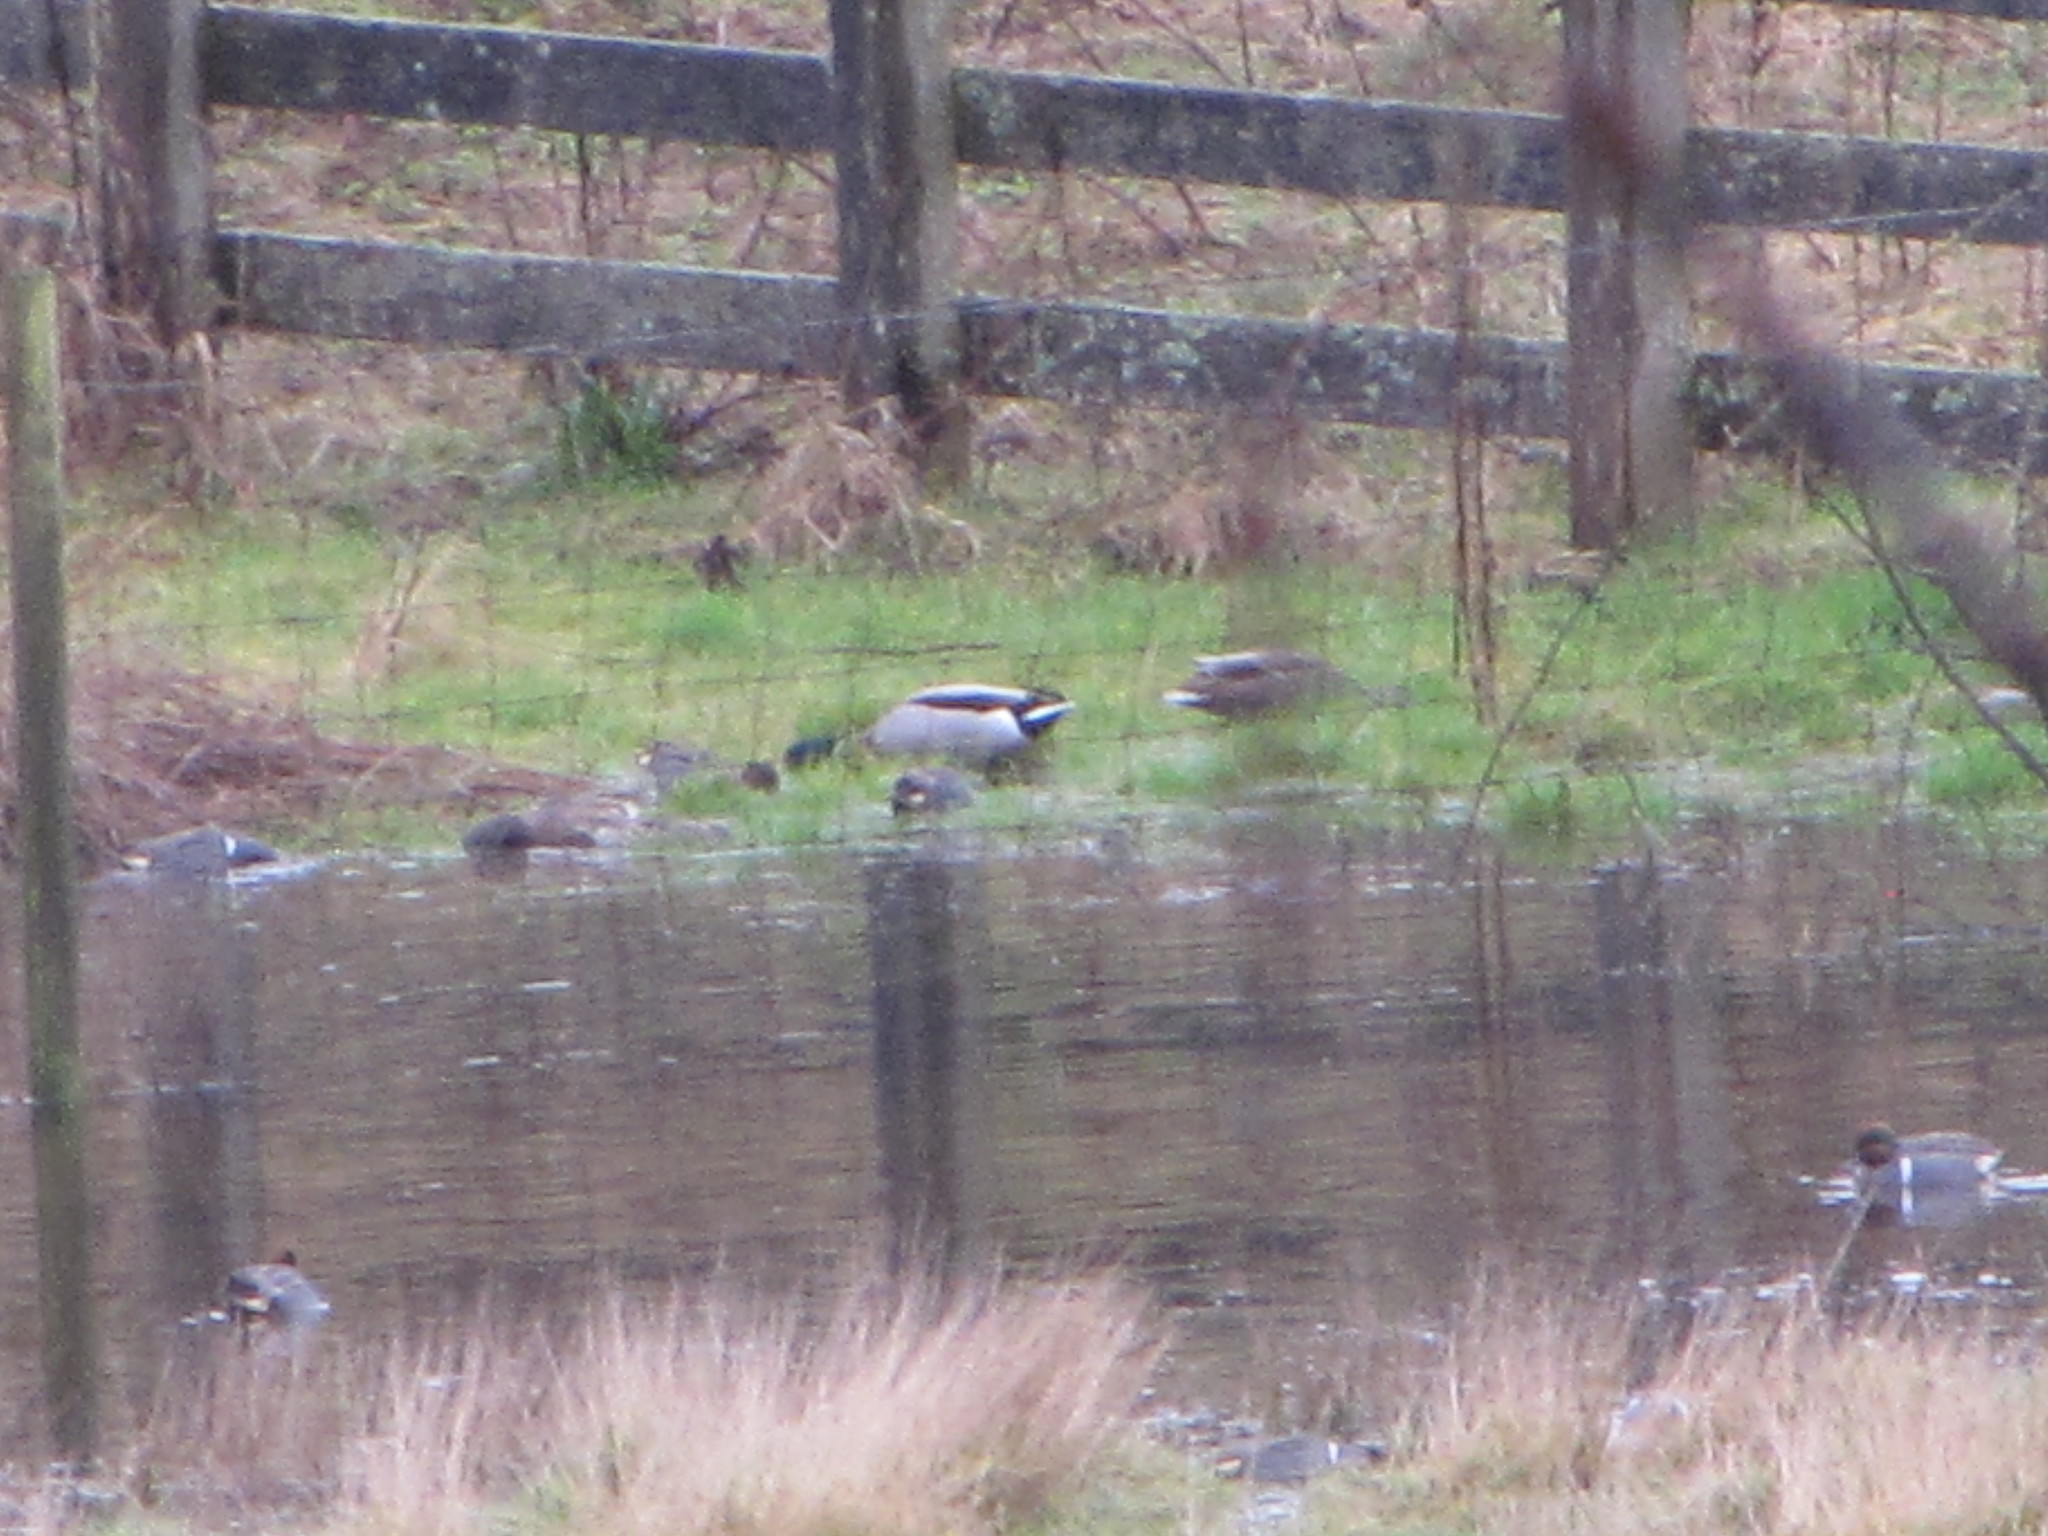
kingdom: Animalia
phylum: Chordata
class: Aves
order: Anseriformes
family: Anatidae
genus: Anas
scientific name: Anas platyrhynchos
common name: Mallard
